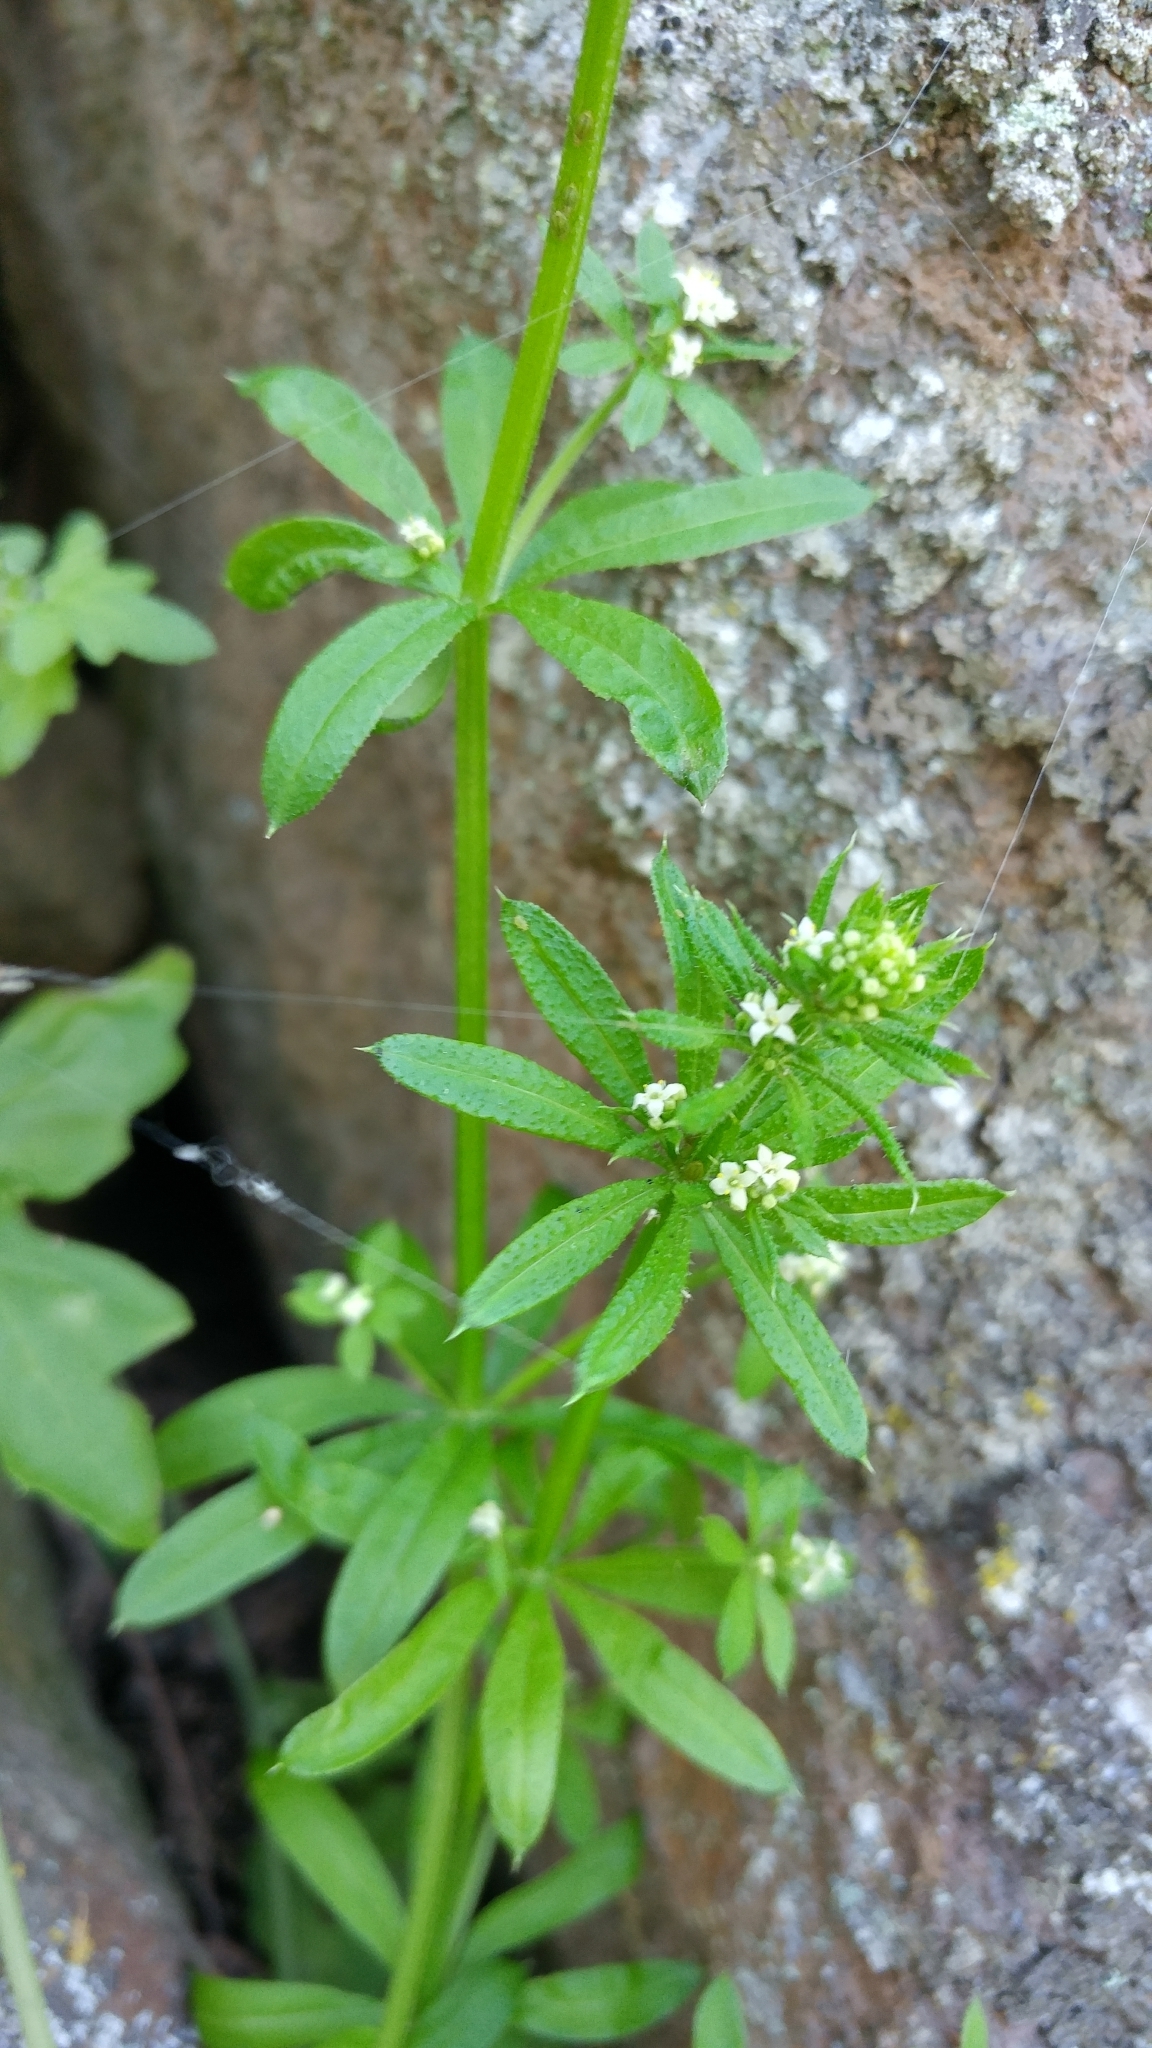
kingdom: Plantae
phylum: Tracheophyta
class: Magnoliopsida
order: Gentianales
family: Rubiaceae
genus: Galium
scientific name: Galium aparine
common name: Cleavers
